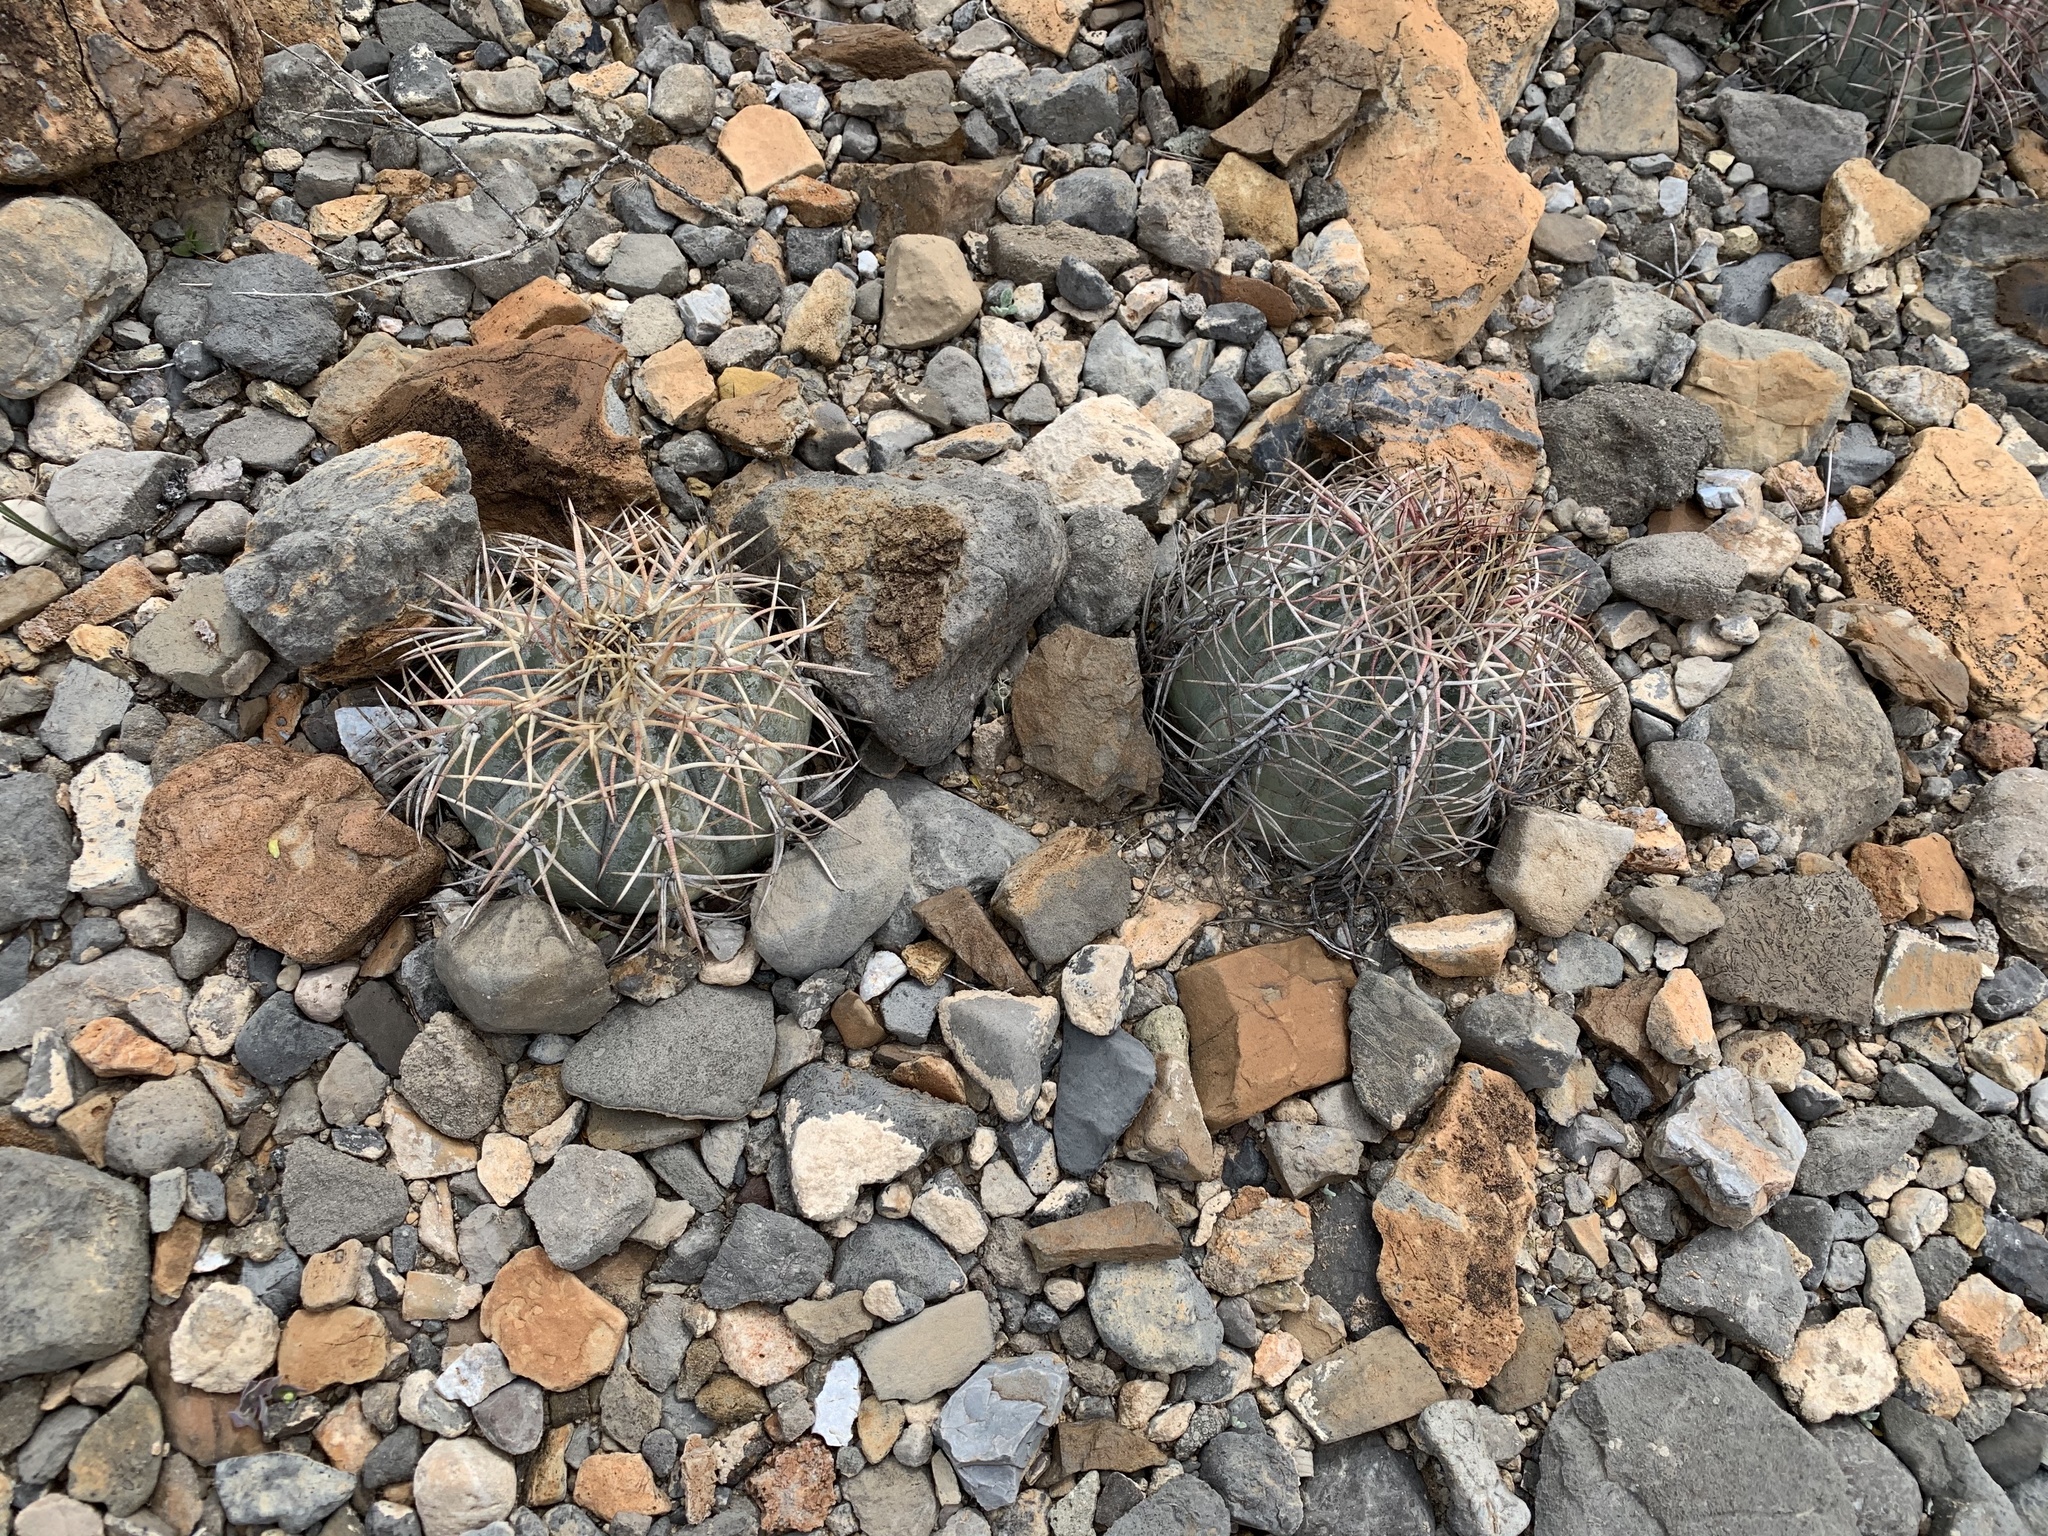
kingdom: Plantae
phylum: Tracheophyta
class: Magnoliopsida
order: Caryophyllales
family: Cactaceae
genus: Echinocactus
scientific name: Echinocactus horizonthalonius
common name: Devilshead
